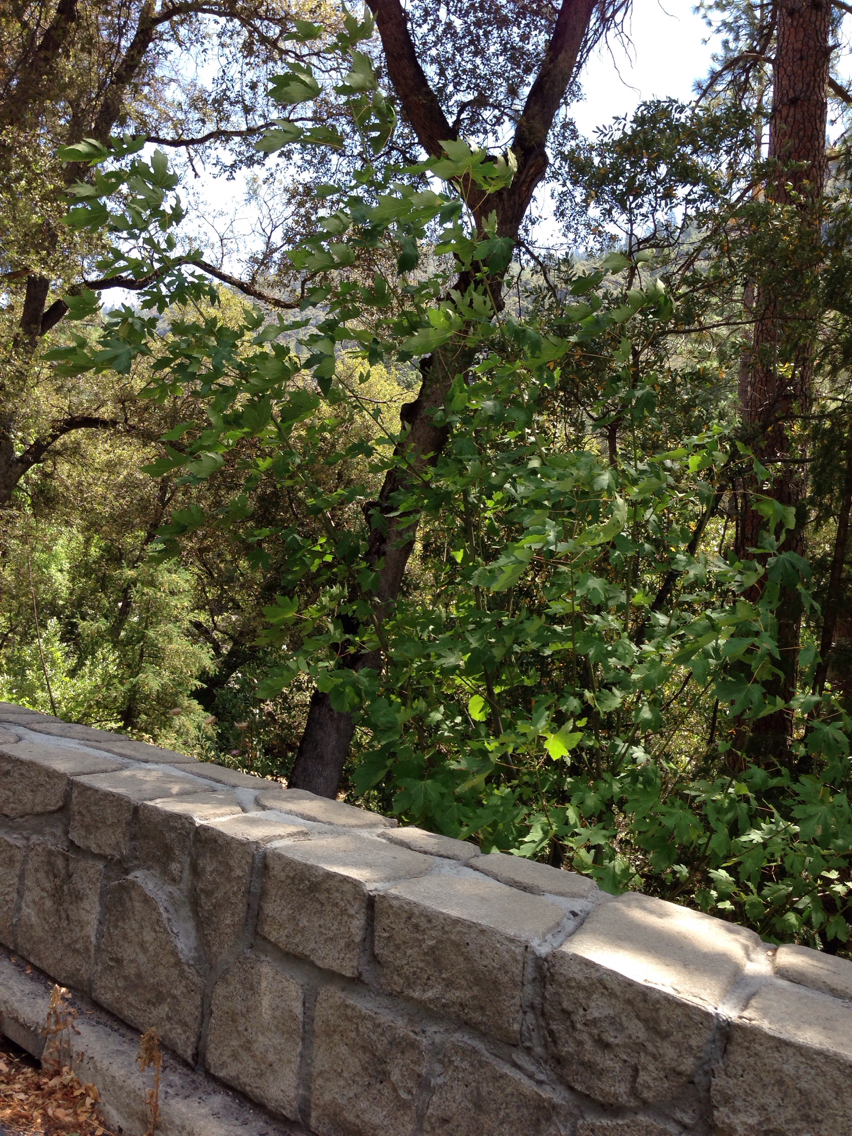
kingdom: Plantae
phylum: Tracheophyta
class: Magnoliopsida
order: Sapindales
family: Sapindaceae
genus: Acer
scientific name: Acer macrophyllum
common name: Oregon maple
